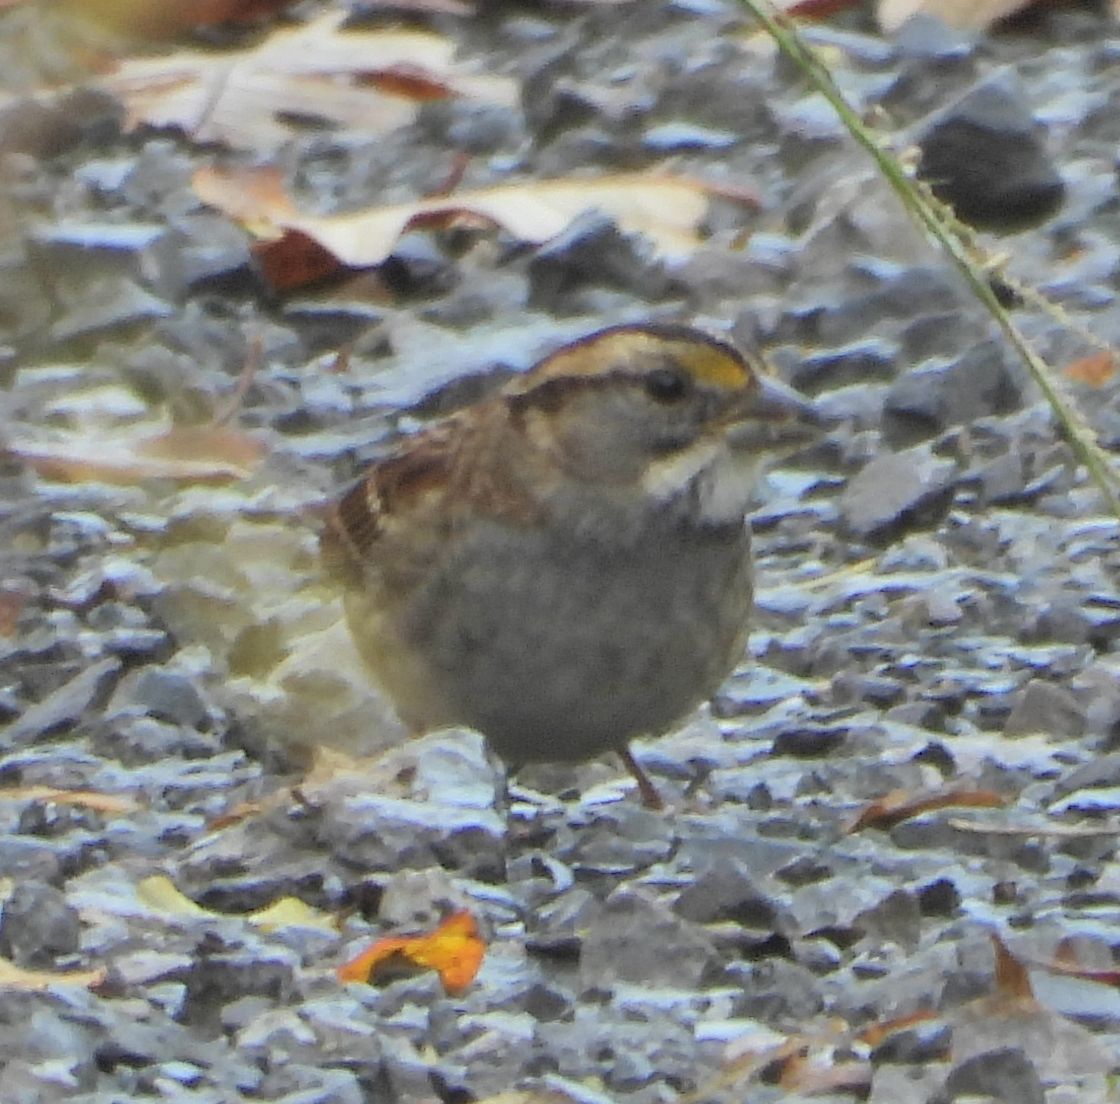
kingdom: Animalia
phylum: Chordata
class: Aves
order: Passeriformes
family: Passerellidae
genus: Zonotrichia
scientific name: Zonotrichia albicollis
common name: White-throated sparrow
